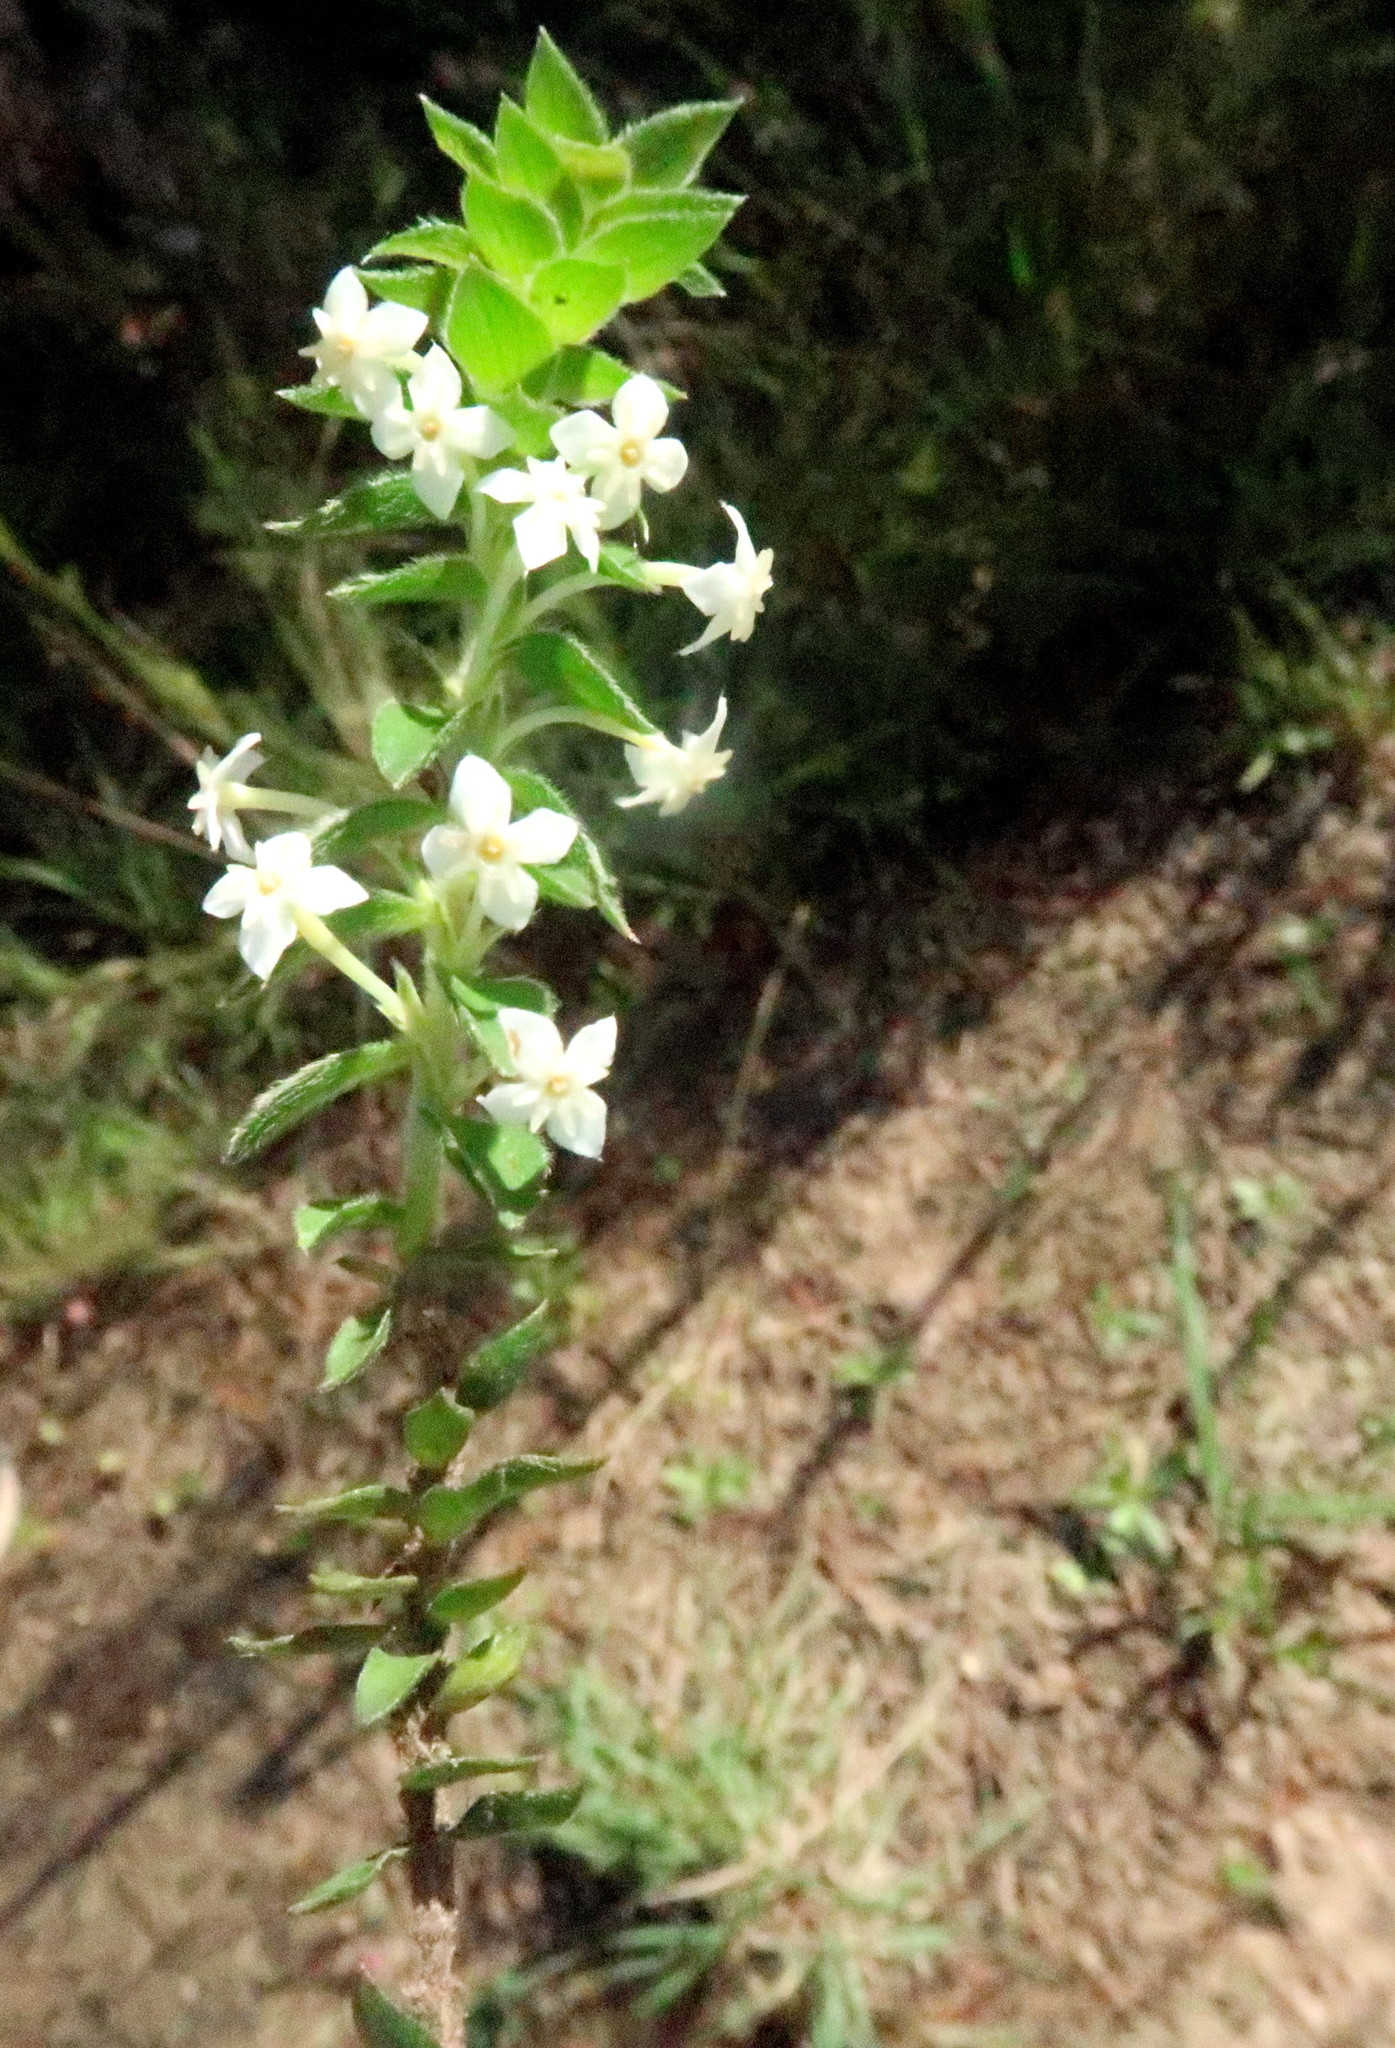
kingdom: Plantae
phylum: Tracheophyta
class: Magnoliopsida
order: Malvales
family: Thymelaeaceae
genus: Struthiola
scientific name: Struthiola hirsuta
